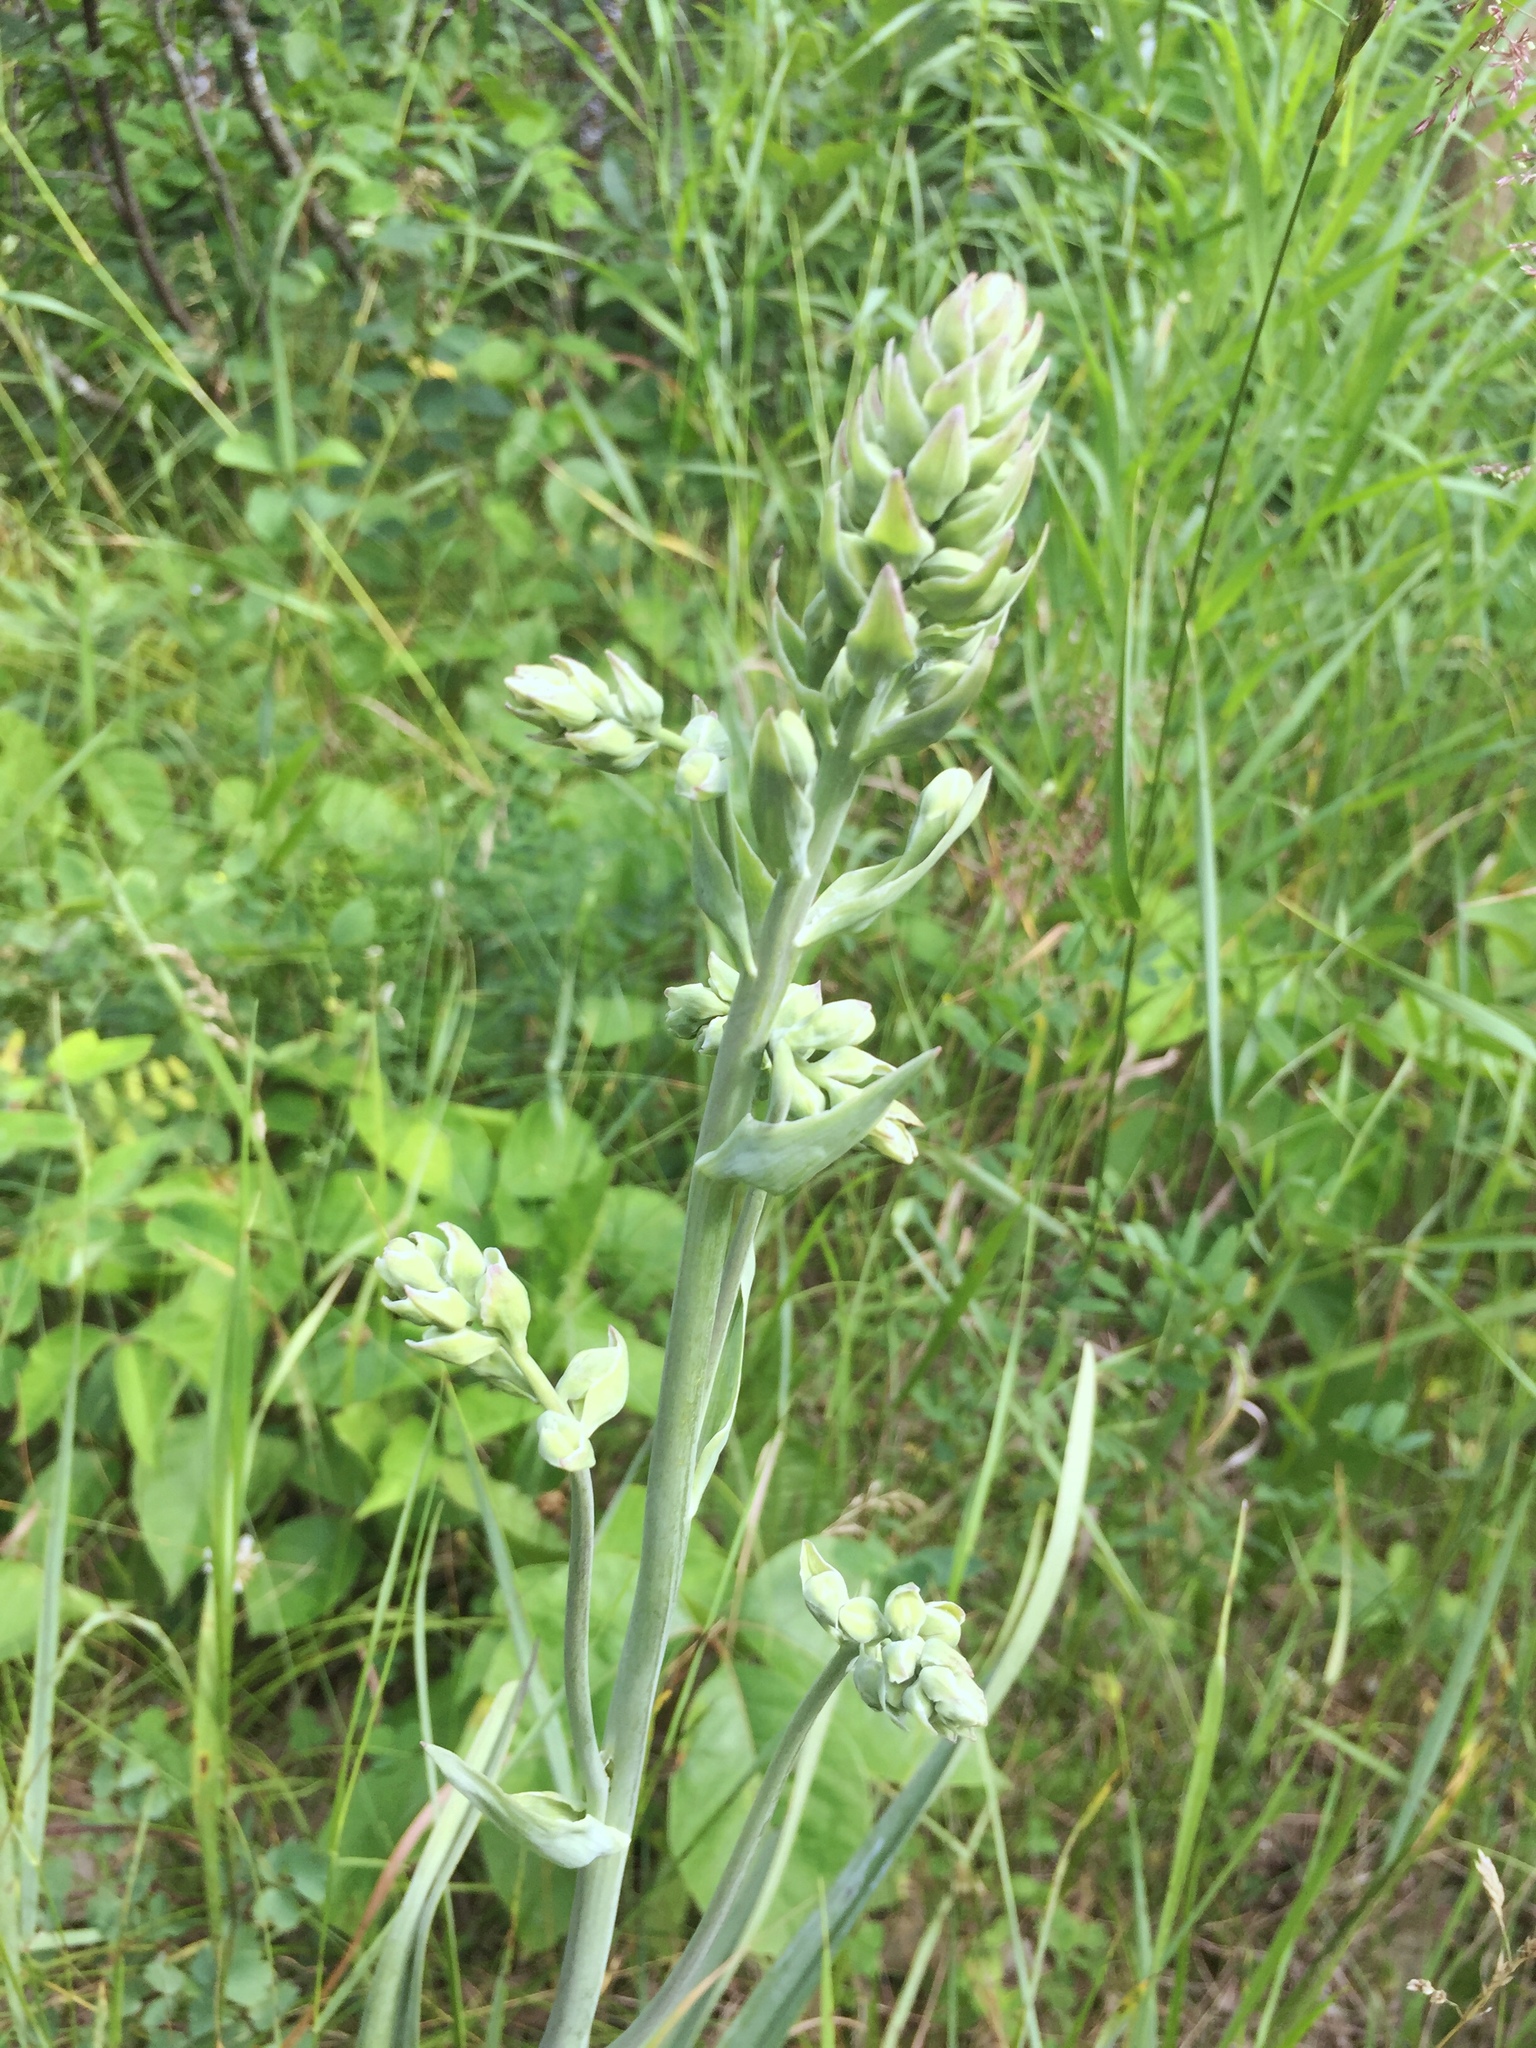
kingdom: Plantae
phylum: Tracheophyta
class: Liliopsida
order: Liliales
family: Melanthiaceae
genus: Anticlea
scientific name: Anticlea elegans
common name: Mountain death camas
